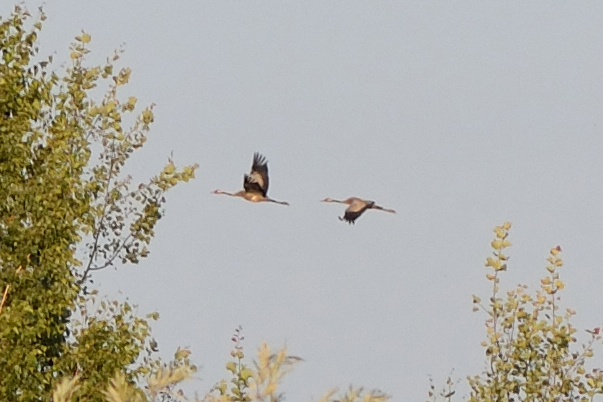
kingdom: Animalia
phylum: Chordata
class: Aves
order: Gruiformes
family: Gruidae
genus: Grus
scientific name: Grus grus
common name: Common crane
